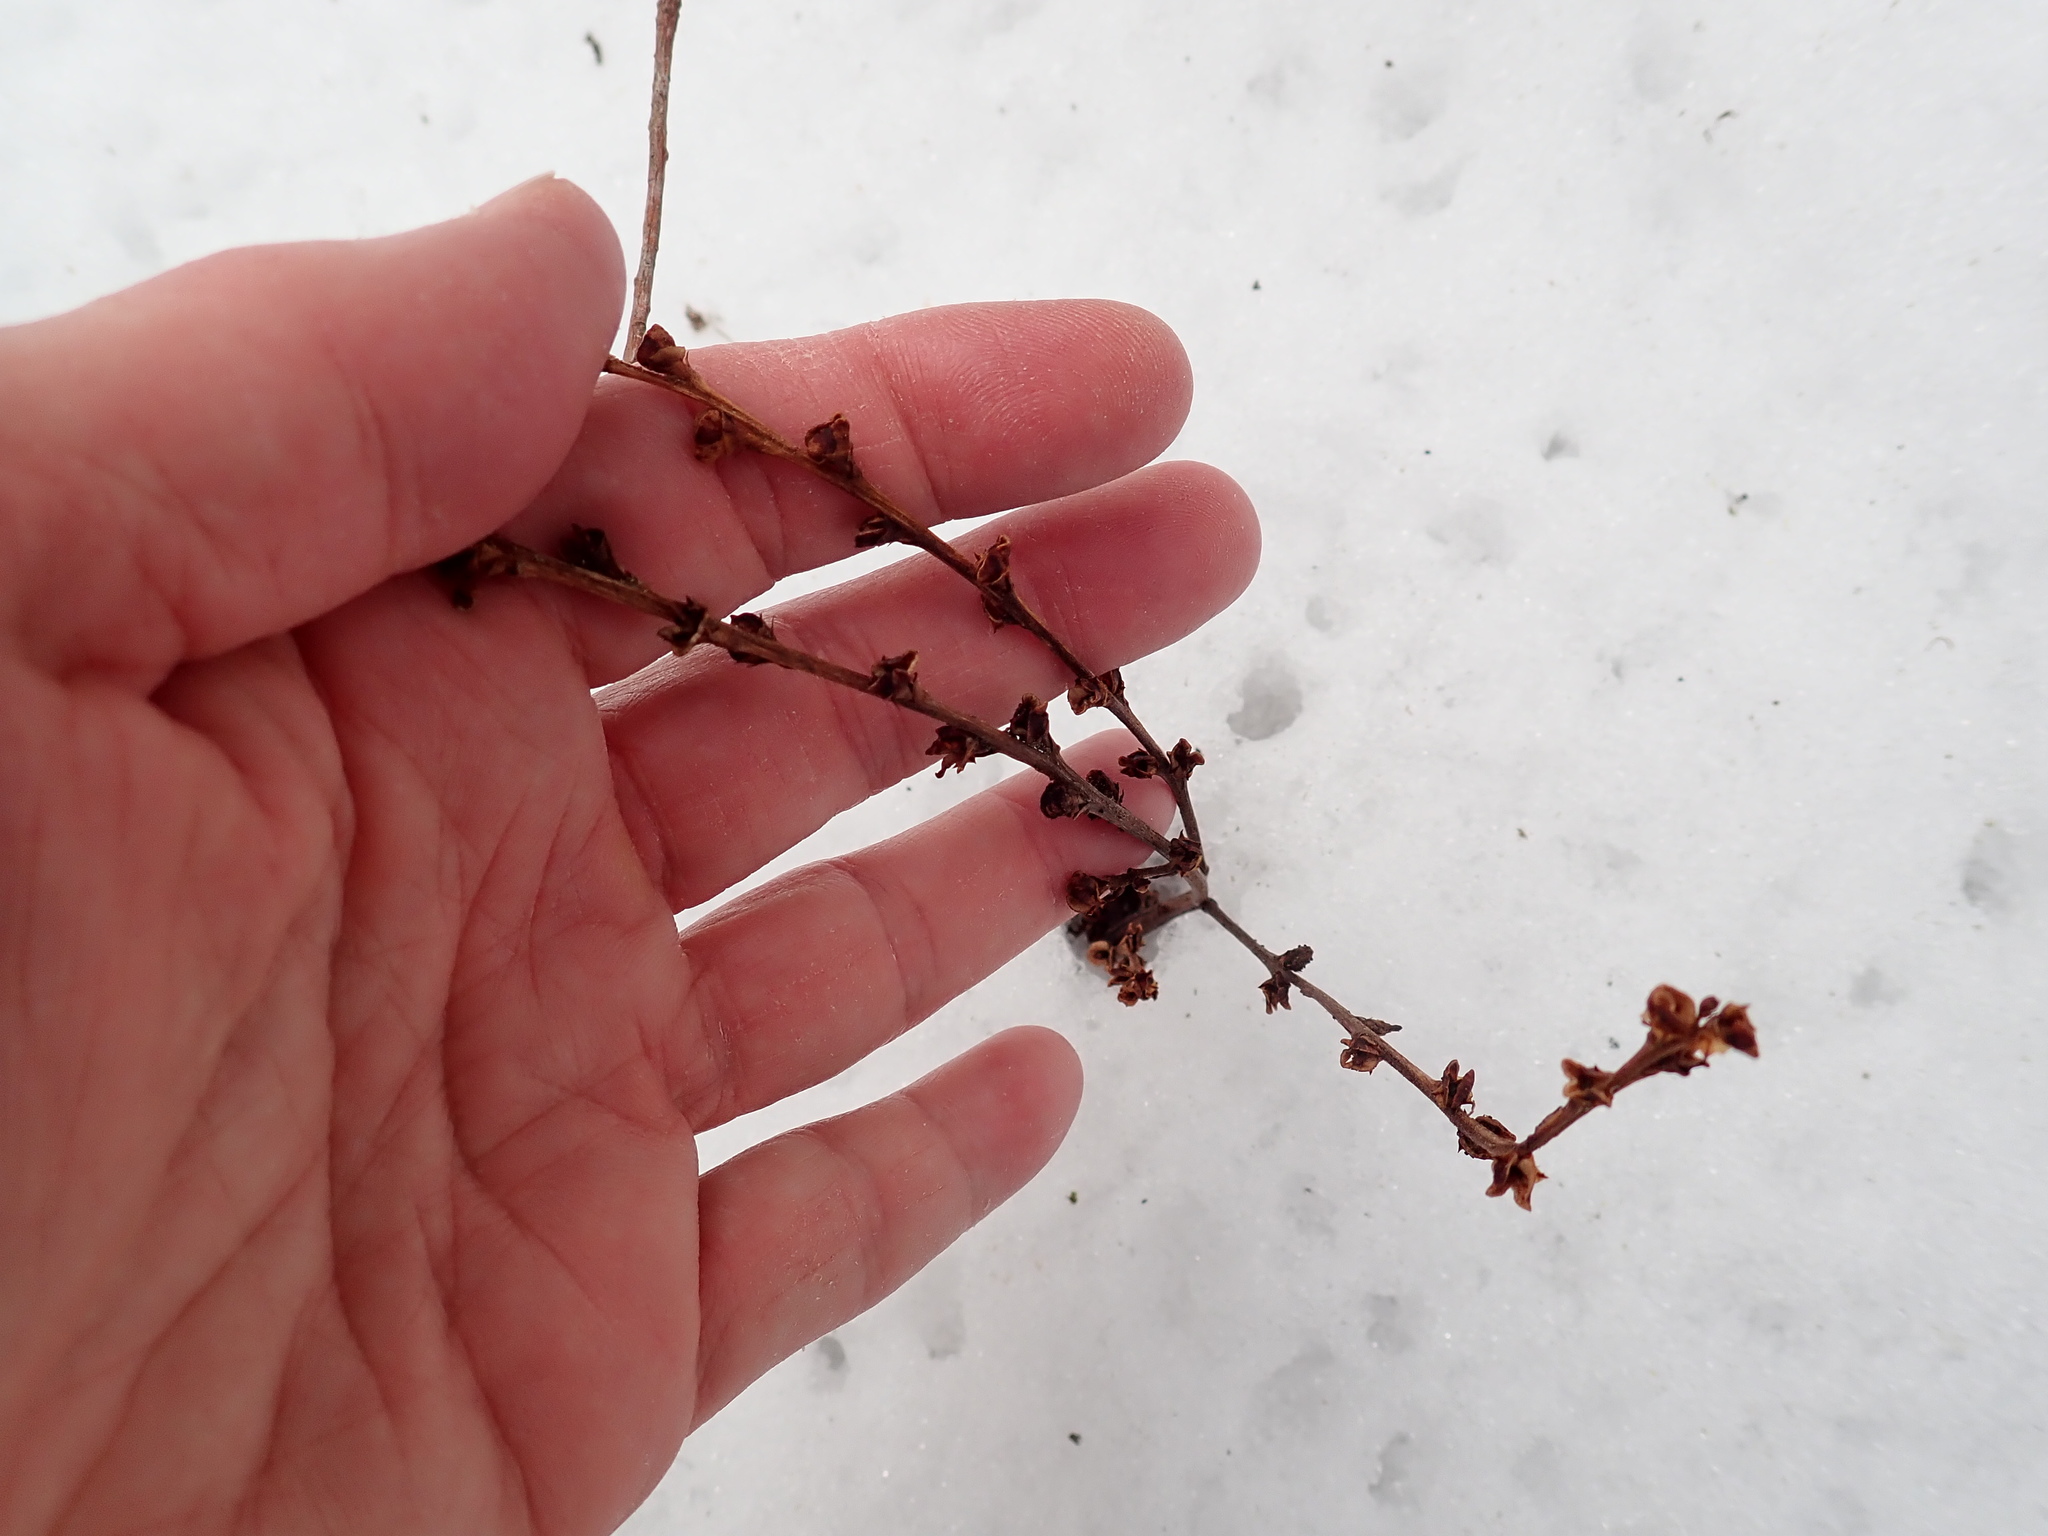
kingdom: Plantae
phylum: Tracheophyta
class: Magnoliopsida
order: Lamiales
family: Orobanchaceae
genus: Epifagus
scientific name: Epifagus virginiana
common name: Beechdrops
